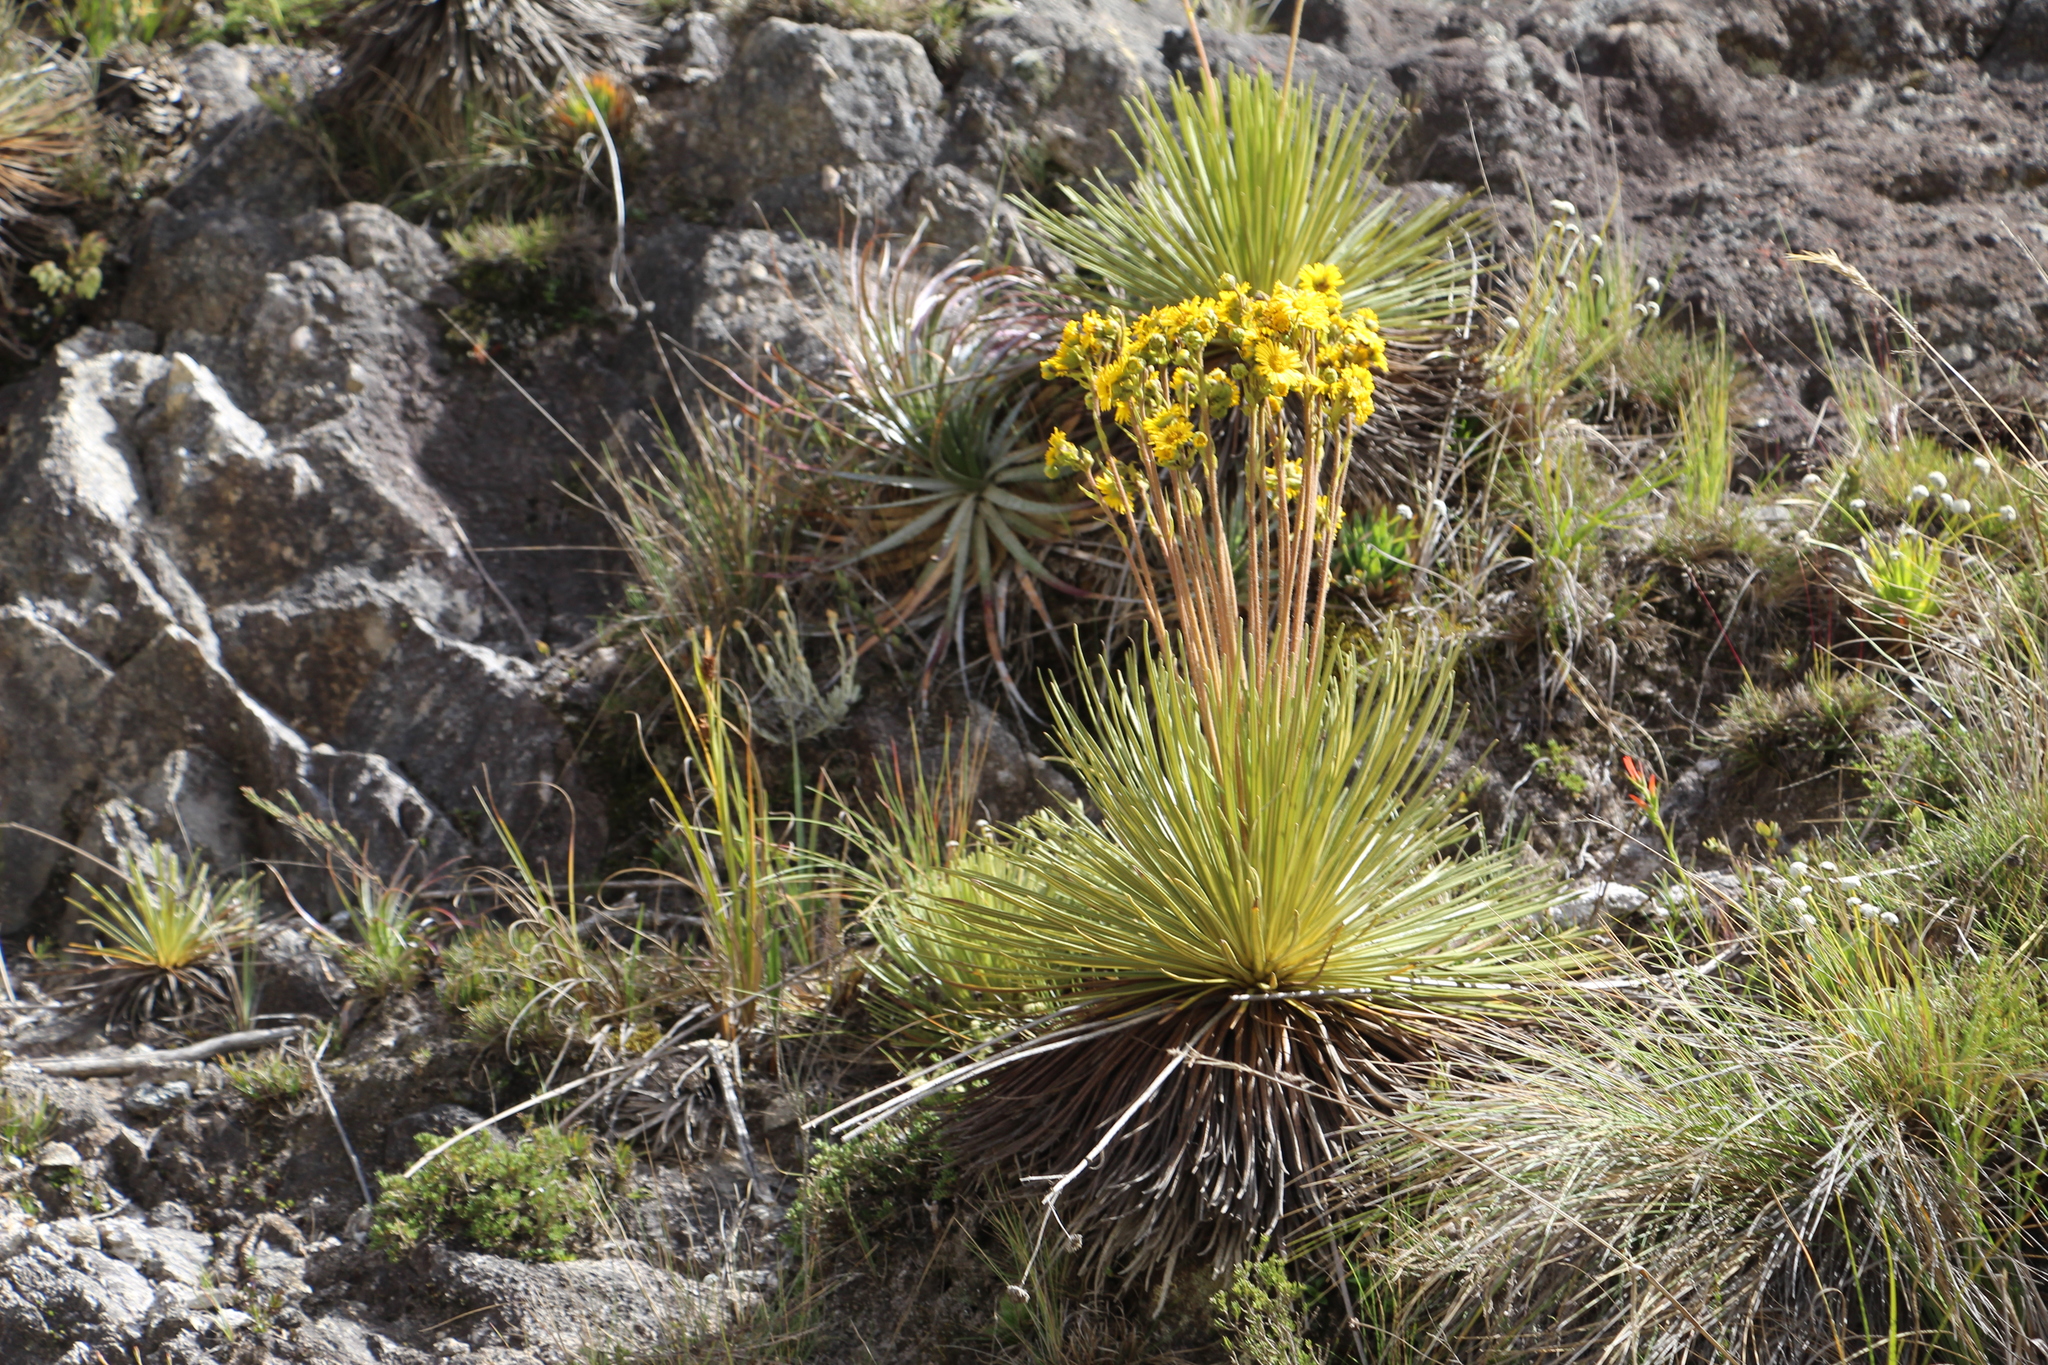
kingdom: Plantae
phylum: Tracheophyta
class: Magnoliopsida
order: Asterales
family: Asteraceae
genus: Espeletia
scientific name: Espeletia glandulosa
